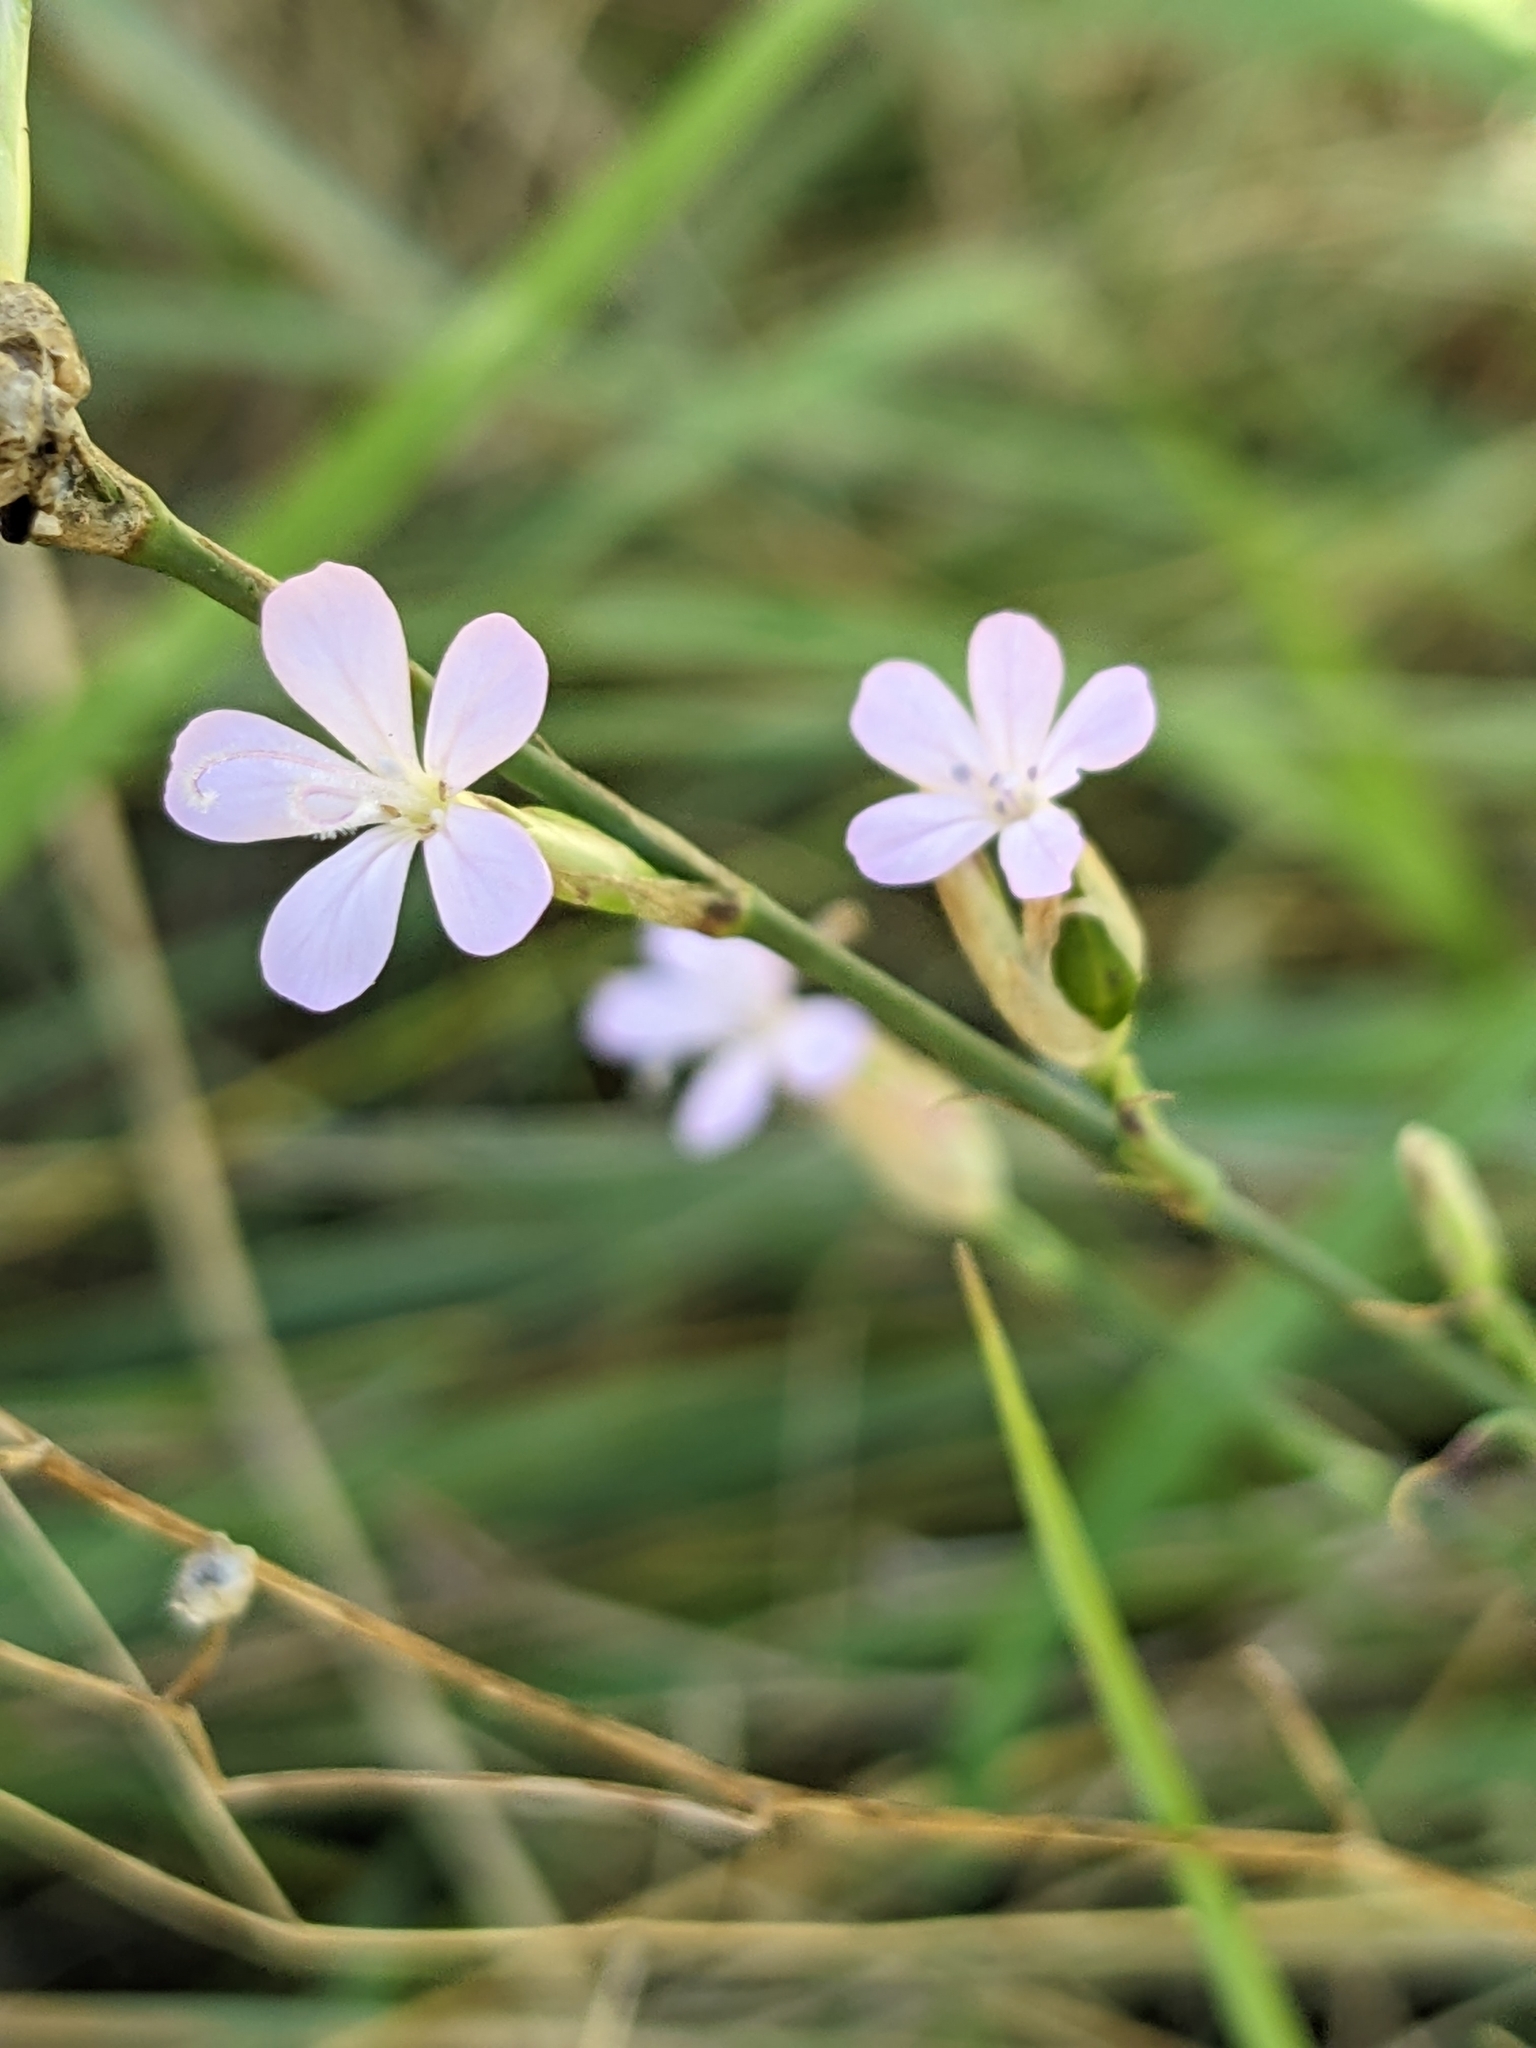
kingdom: Plantae
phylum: Tracheophyta
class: Magnoliopsida
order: Caryophyllales
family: Caryophyllaceae
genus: Petrorhagia
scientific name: Petrorhagia prolifera
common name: Proliferous pink
